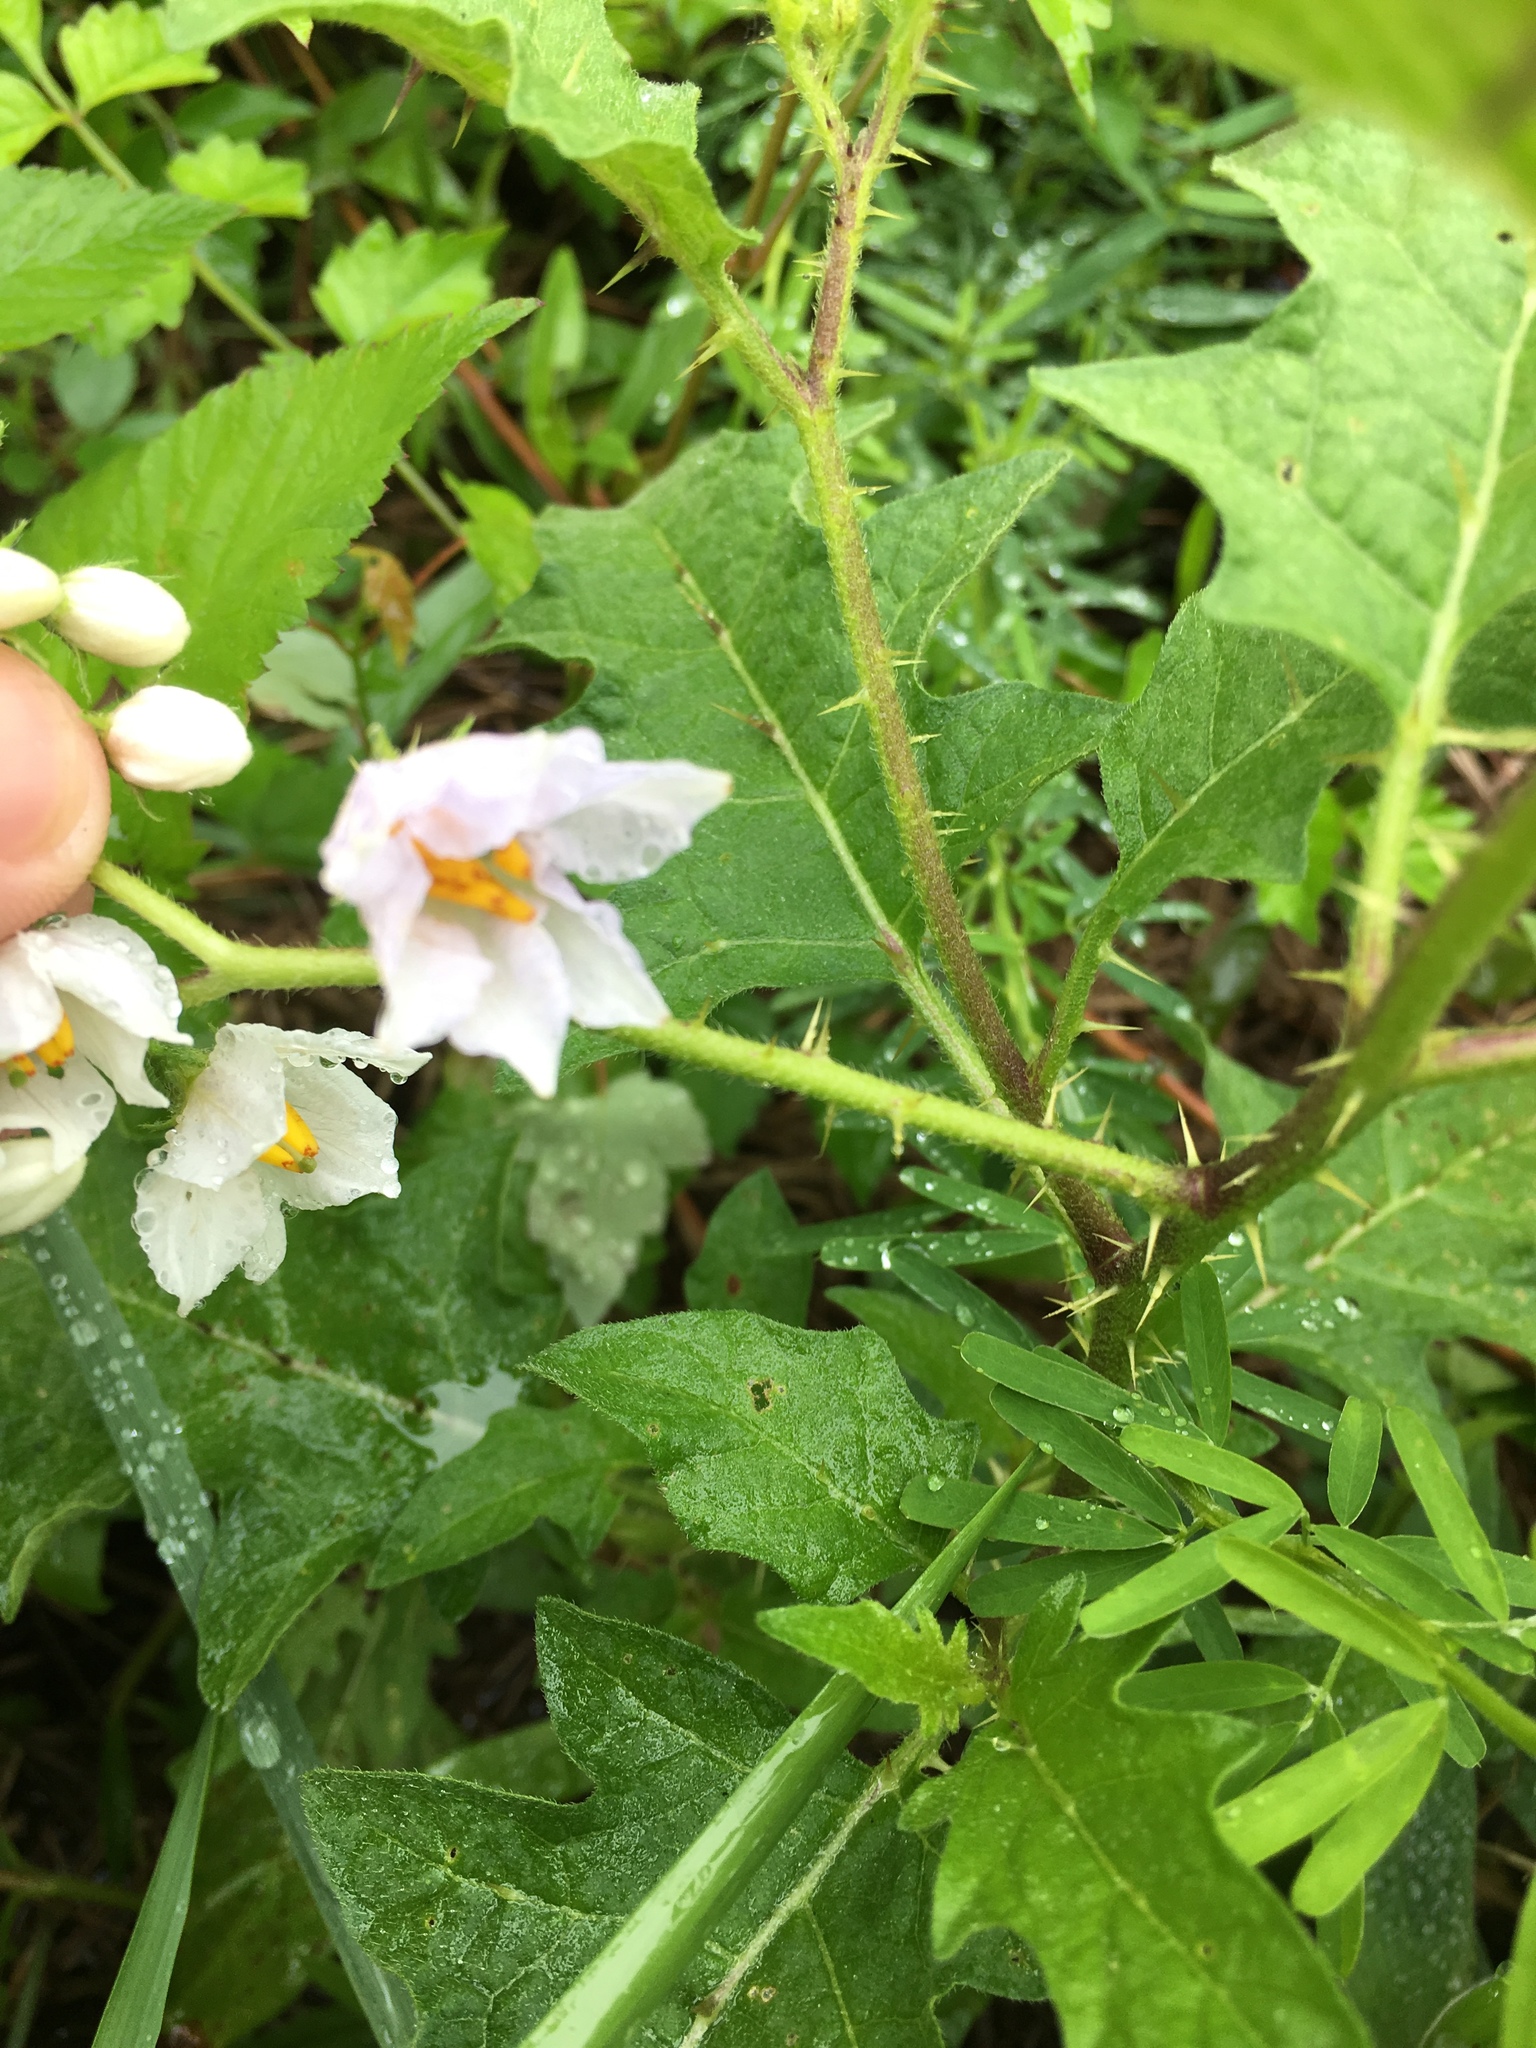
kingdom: Plantae
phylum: Tracheophyta
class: Magnoliopsida
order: Solanales
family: Solanaceae
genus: Solanum
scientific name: Solanum carolinense
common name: Horse-nettle
